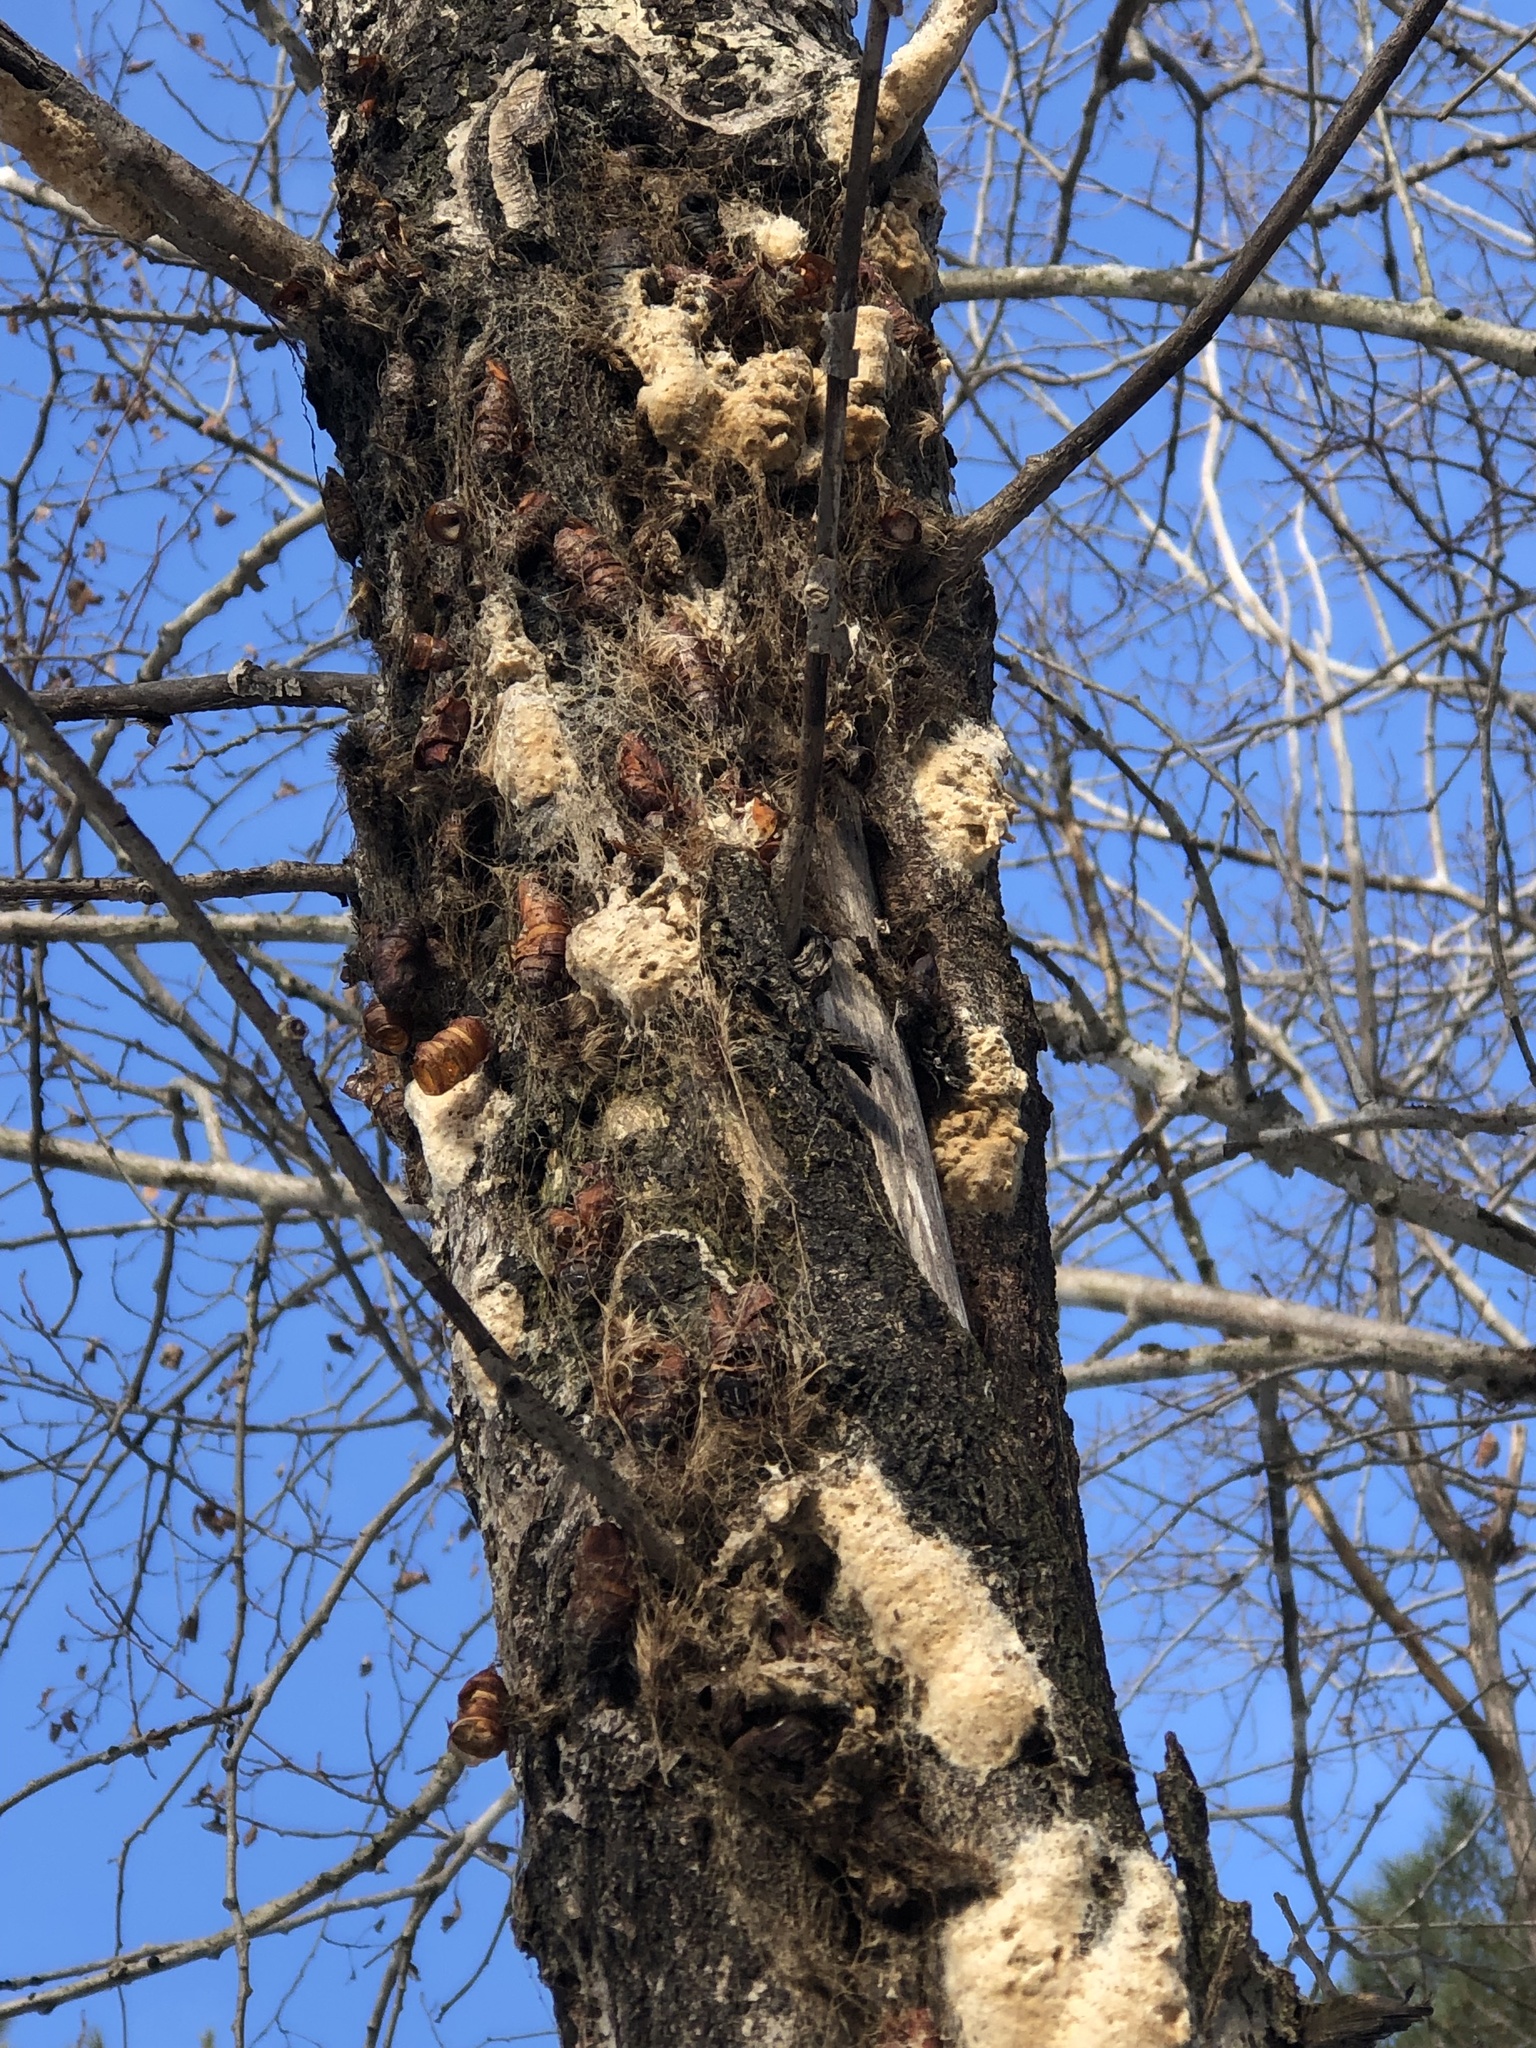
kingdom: Animalia
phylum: Arthropoda
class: Insecta
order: Lepidoptera
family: Erebidae
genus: Lymantria
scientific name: Lymantria dispar
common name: Gypsy moth
